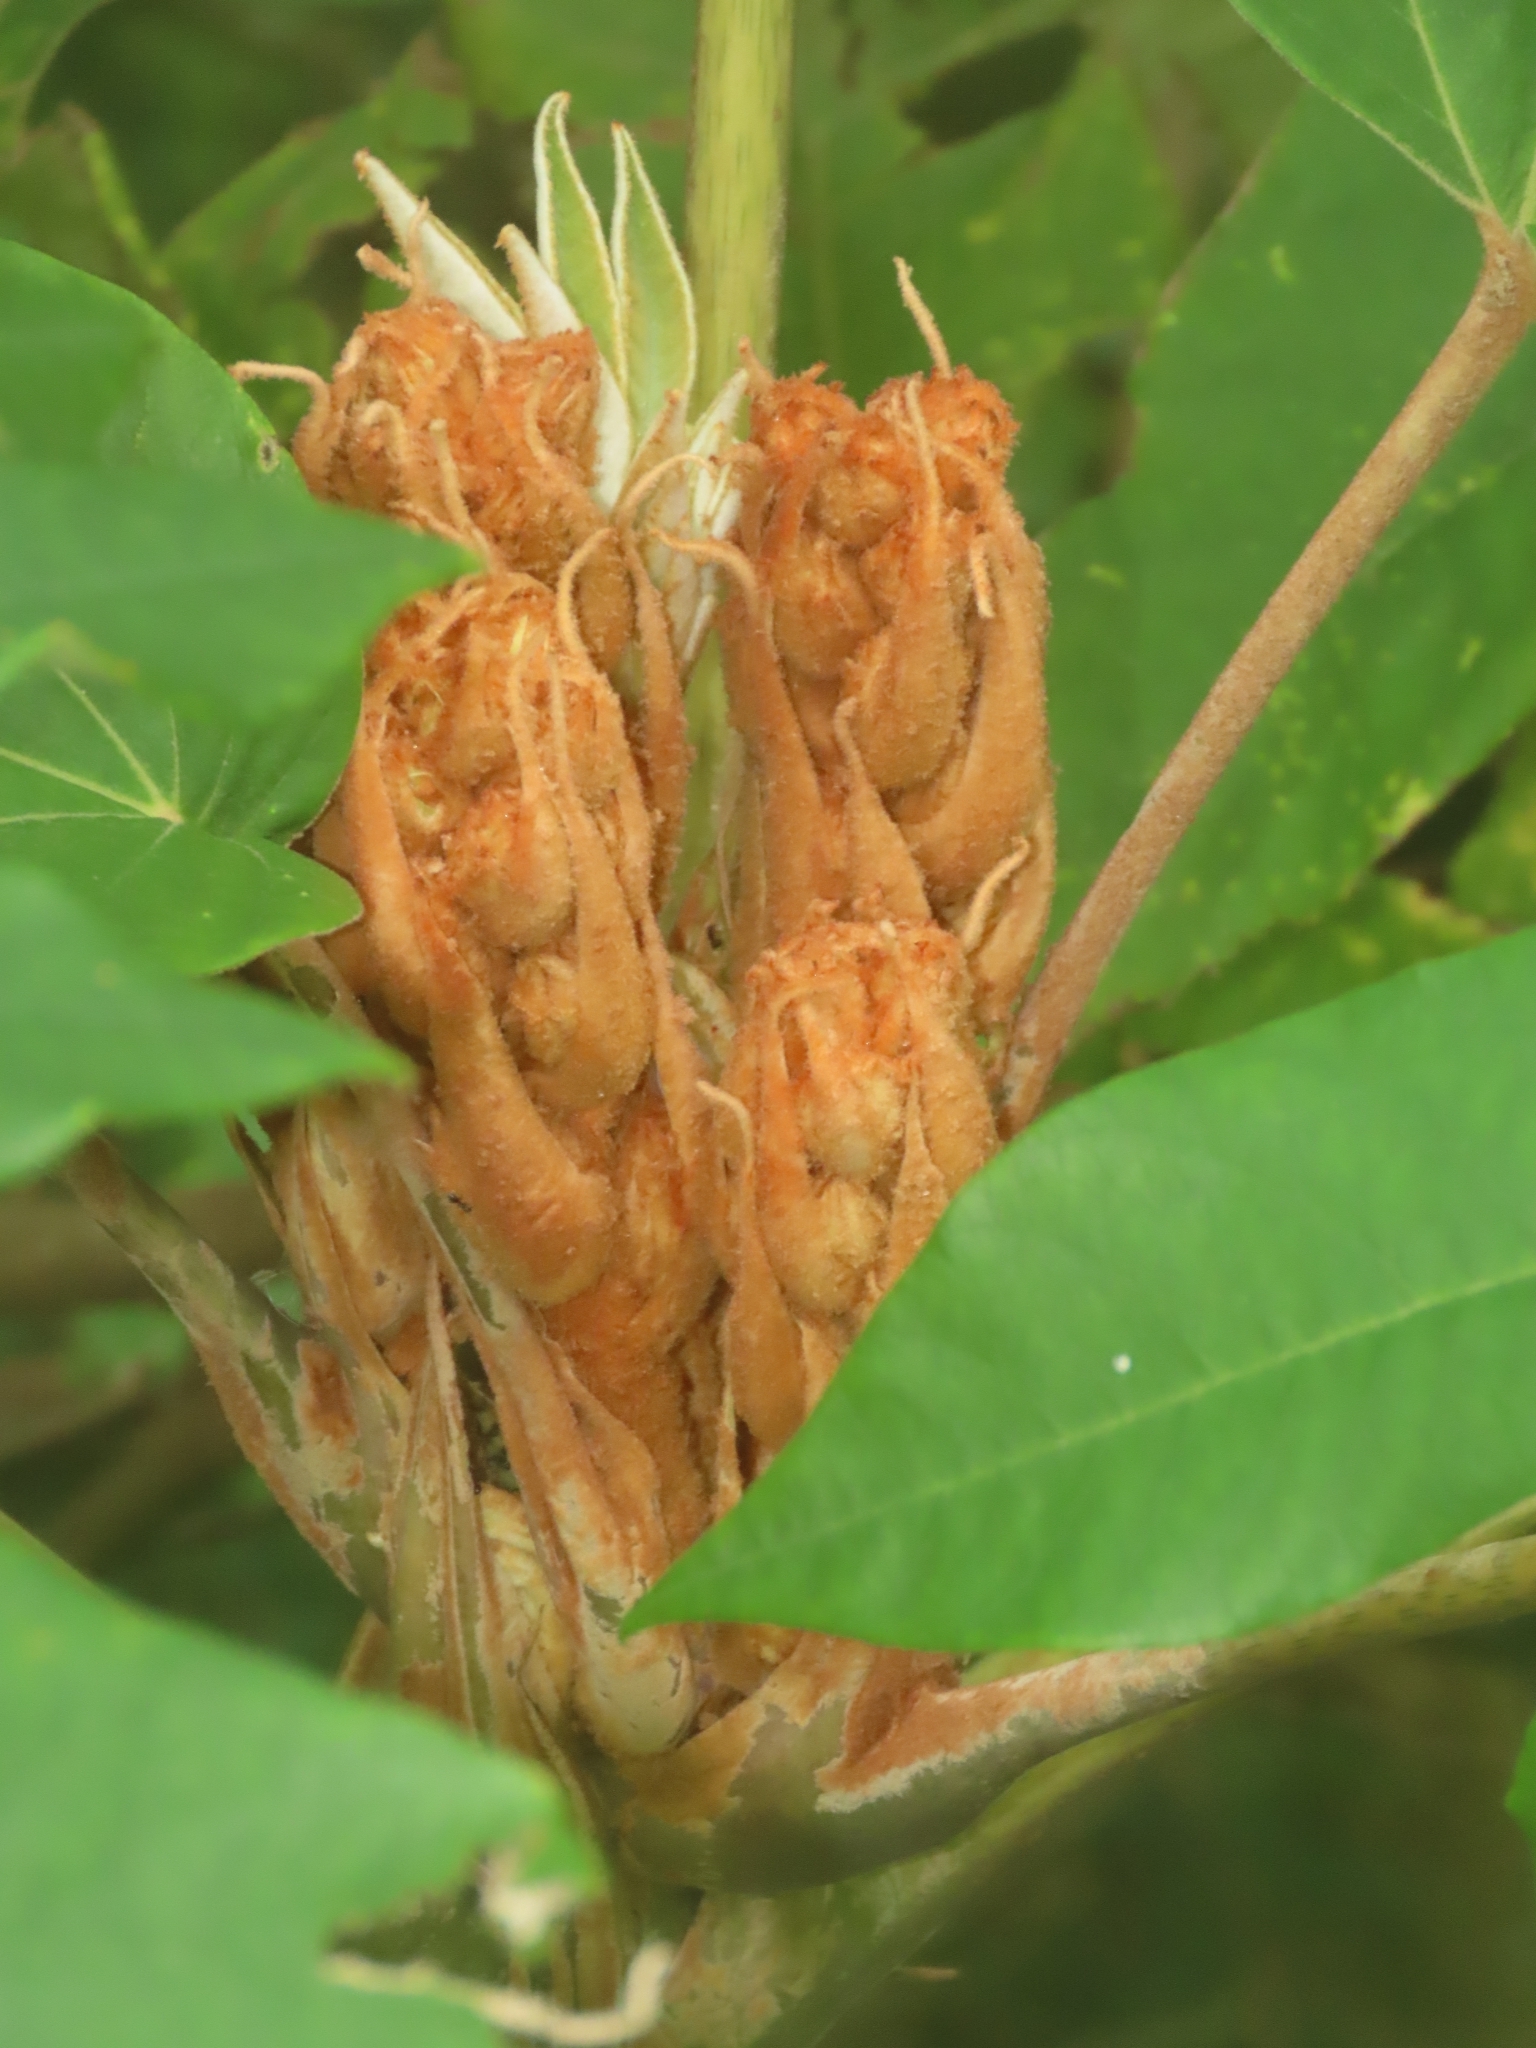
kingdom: Plantae
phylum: Tracheophyta
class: Magnoliopsida
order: Apiales
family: Araliaceae
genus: Tetrapanax
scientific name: Tetrapanax papyrifer
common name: Rice-paper plant
